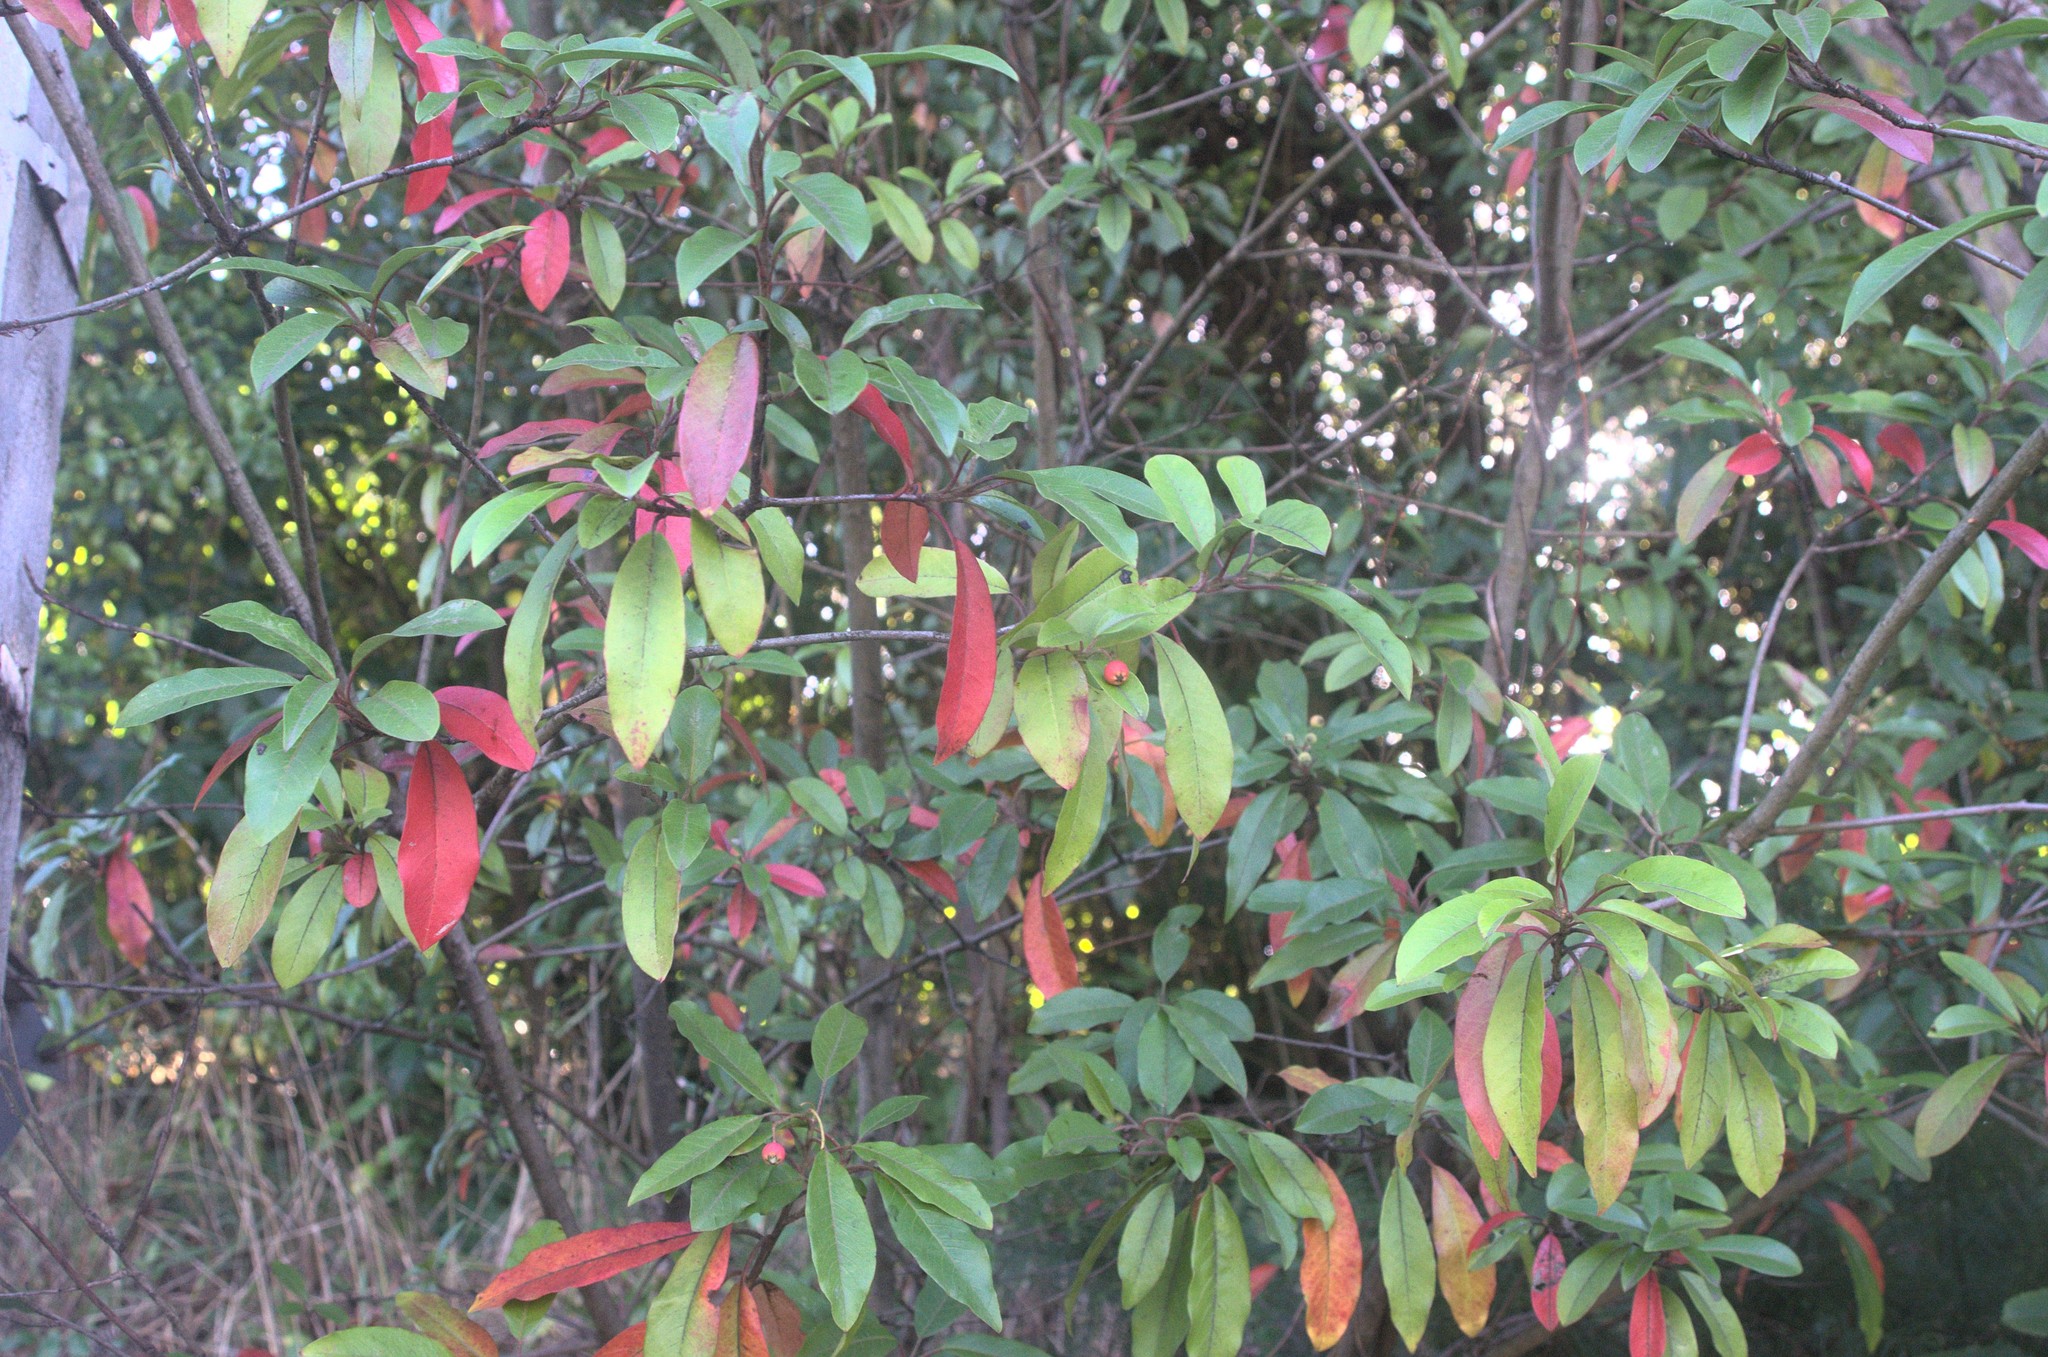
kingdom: Plantae
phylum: Tracheophyta
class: Magnoliopsida
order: Rosales
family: Rosaceae
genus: Stranvaesia
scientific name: Stranvaesia davidiana
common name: Chinese photinia
